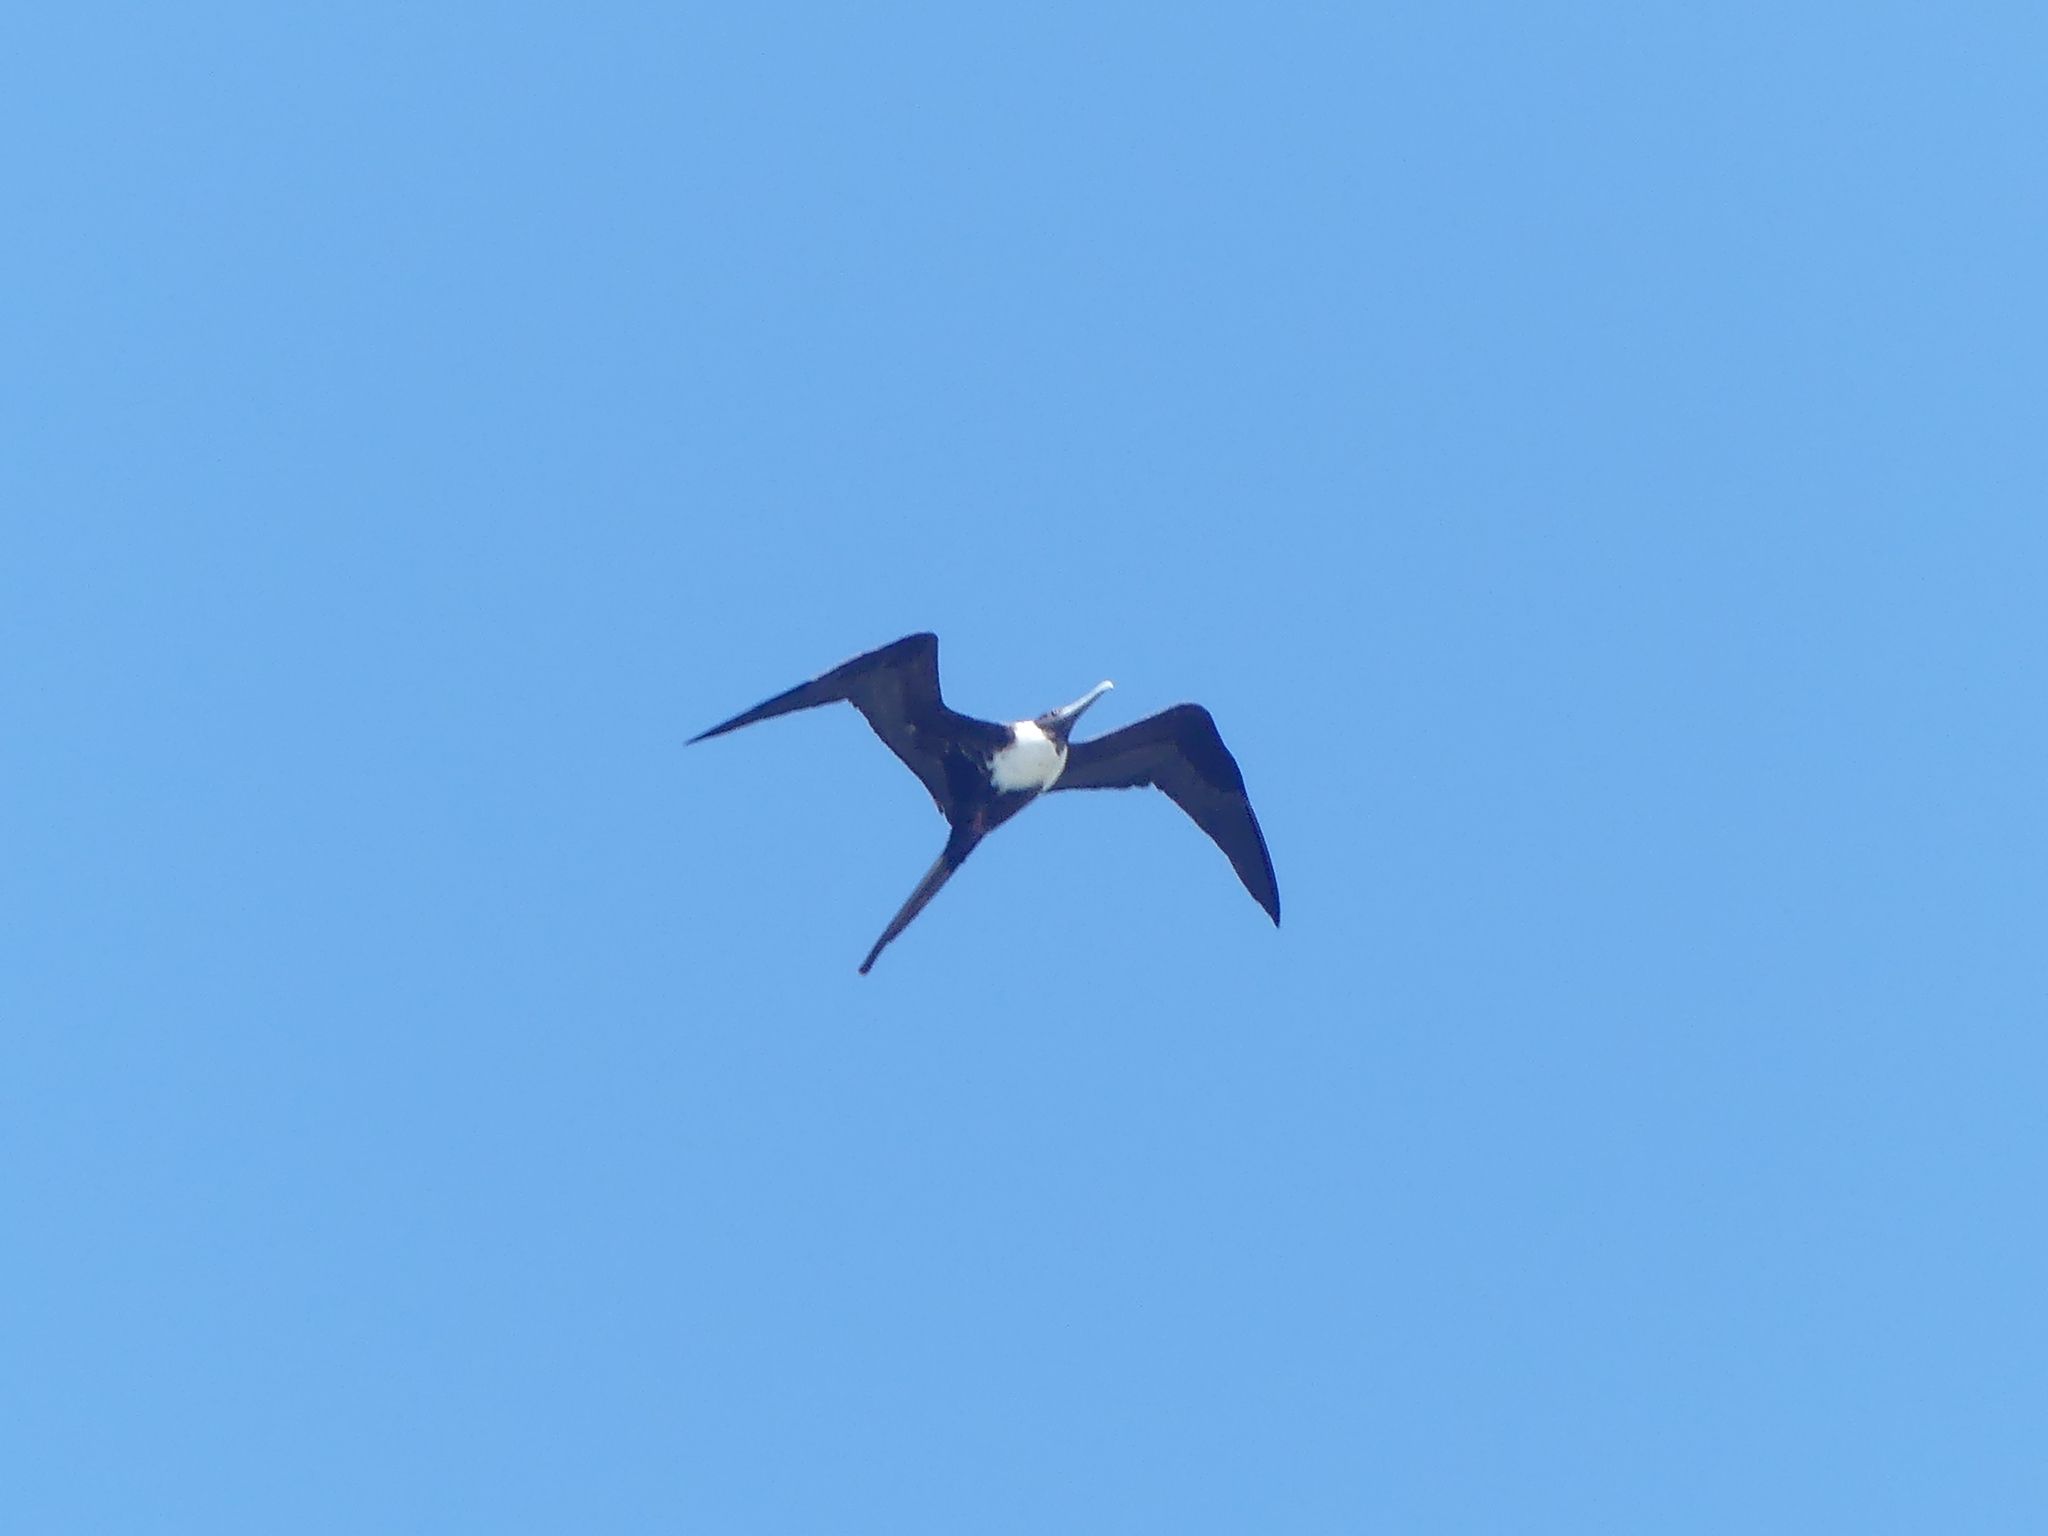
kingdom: Animalia
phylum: Chordata
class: Aves
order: Suliformes
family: Fregatidae
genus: Fregata
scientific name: Fregata magnificens
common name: Magnificent frigatebird
